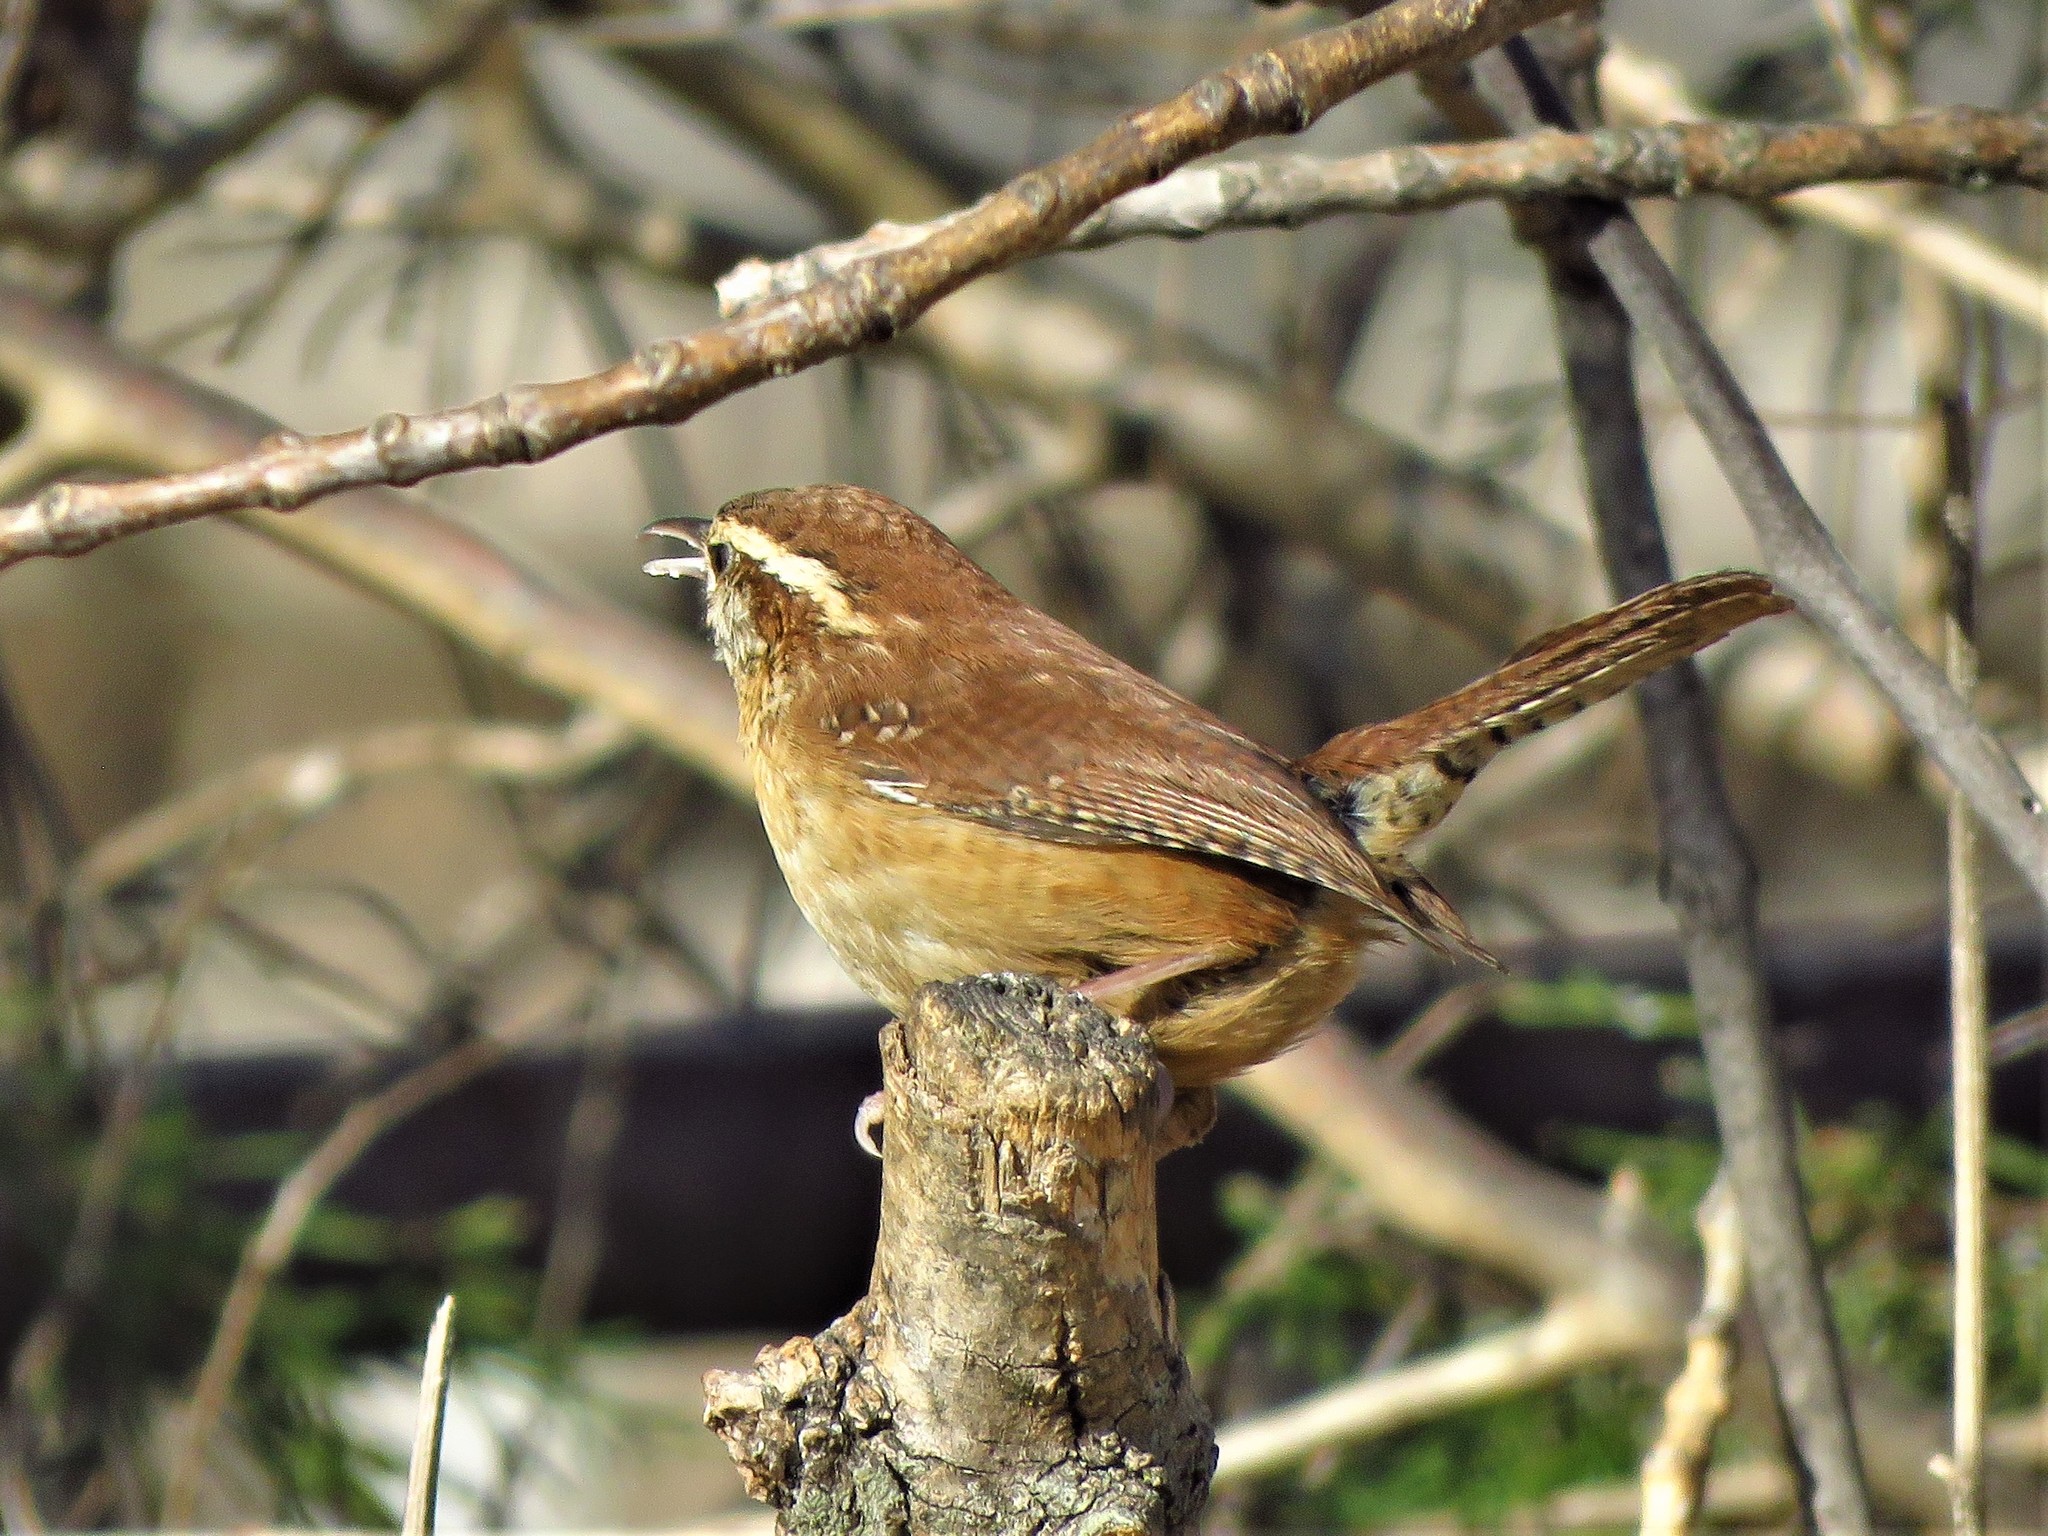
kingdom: Animalia
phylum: Chordata
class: Aves
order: Passeriformes
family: Troglodytidae
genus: Thryothorus
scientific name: Thryothorus ludovicianus
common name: Carolina wren
